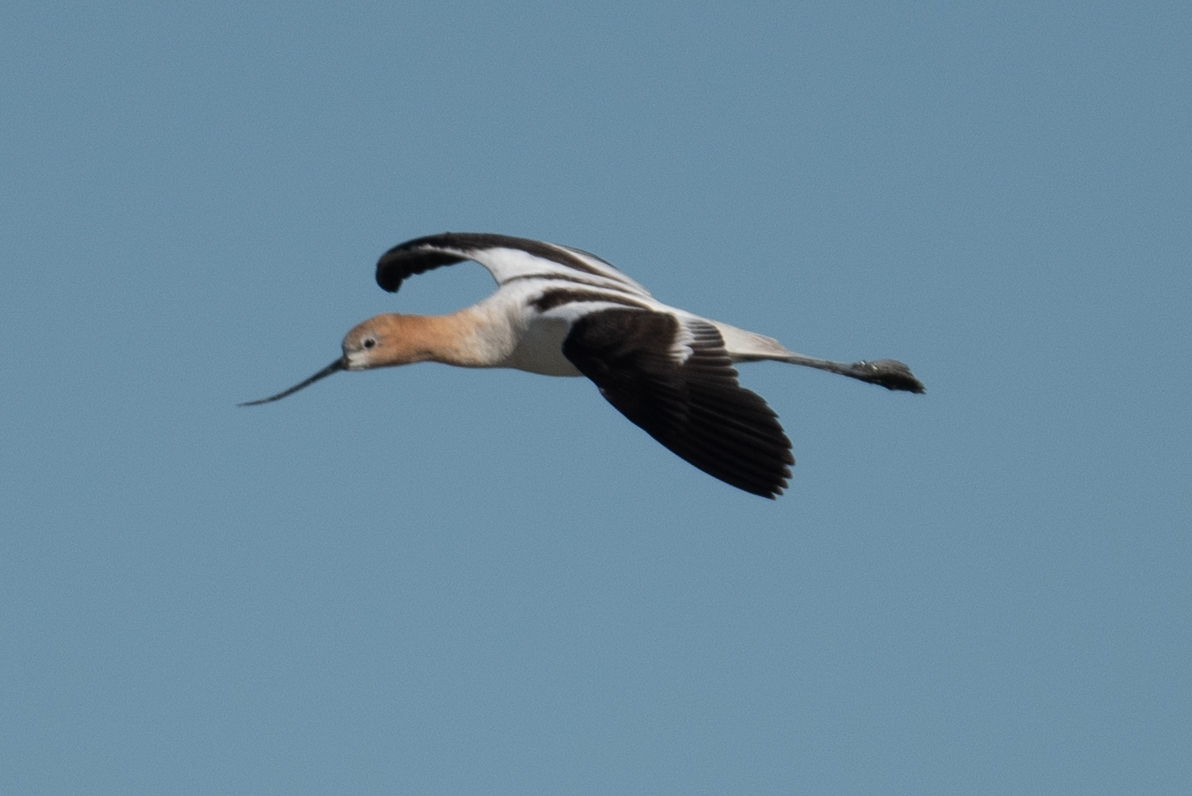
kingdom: Animalia
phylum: Chordata
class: Aves
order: Charadriiformes
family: Recurvirostridae
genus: Recurvirostra
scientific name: Recurvirostra americana
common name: American avocet
